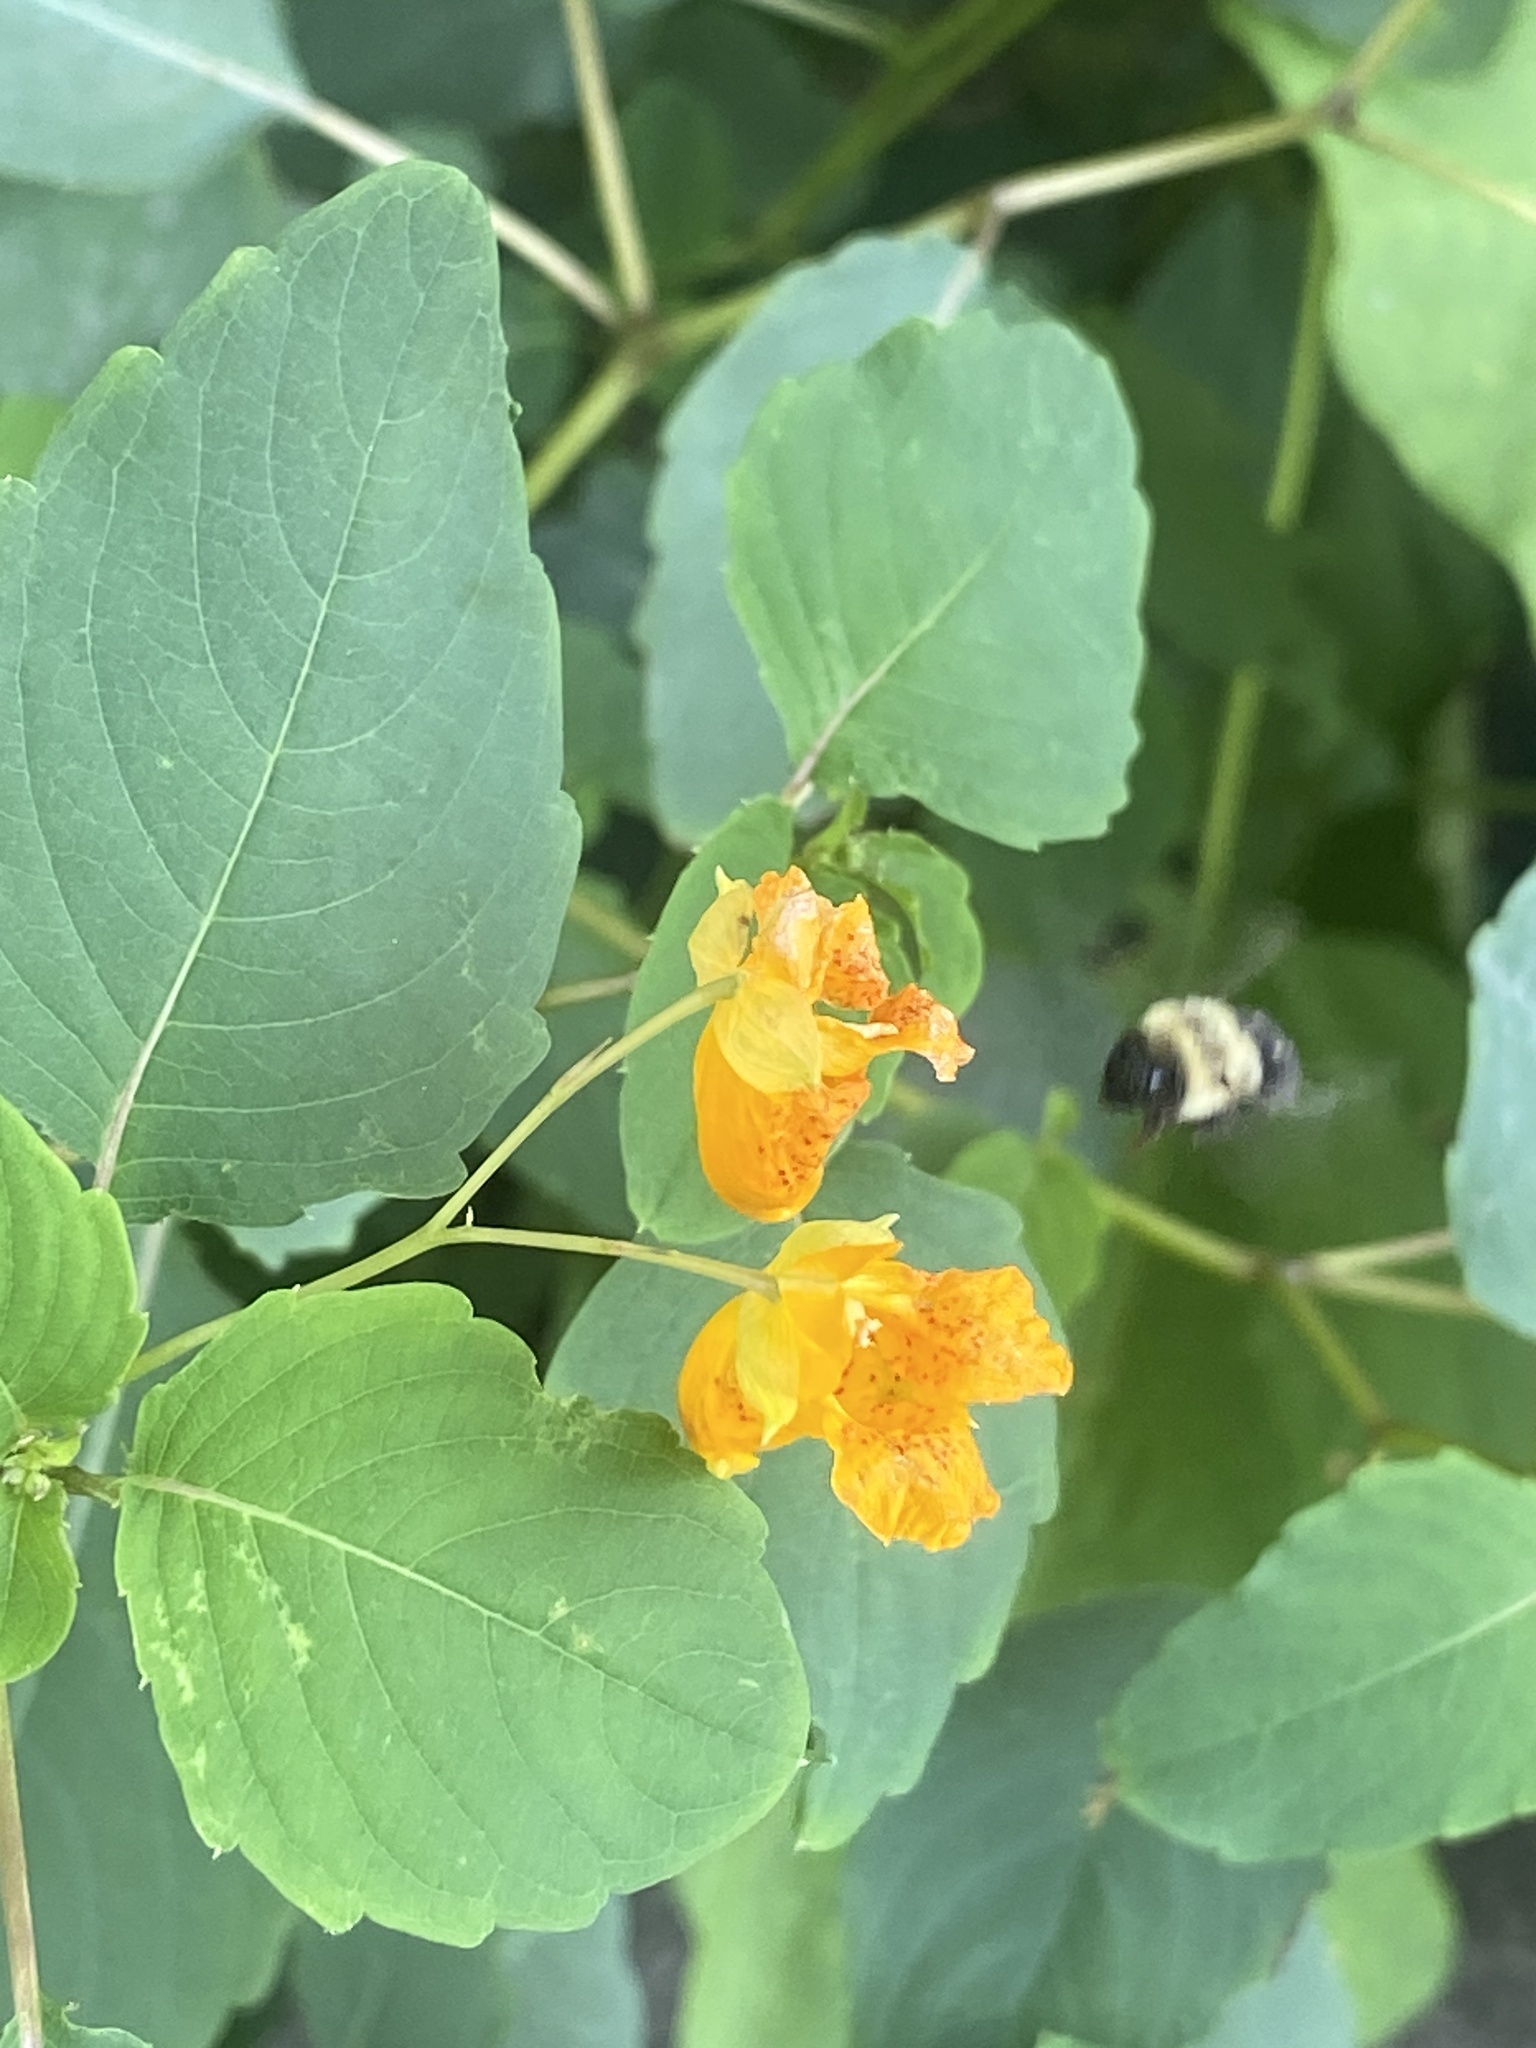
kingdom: Plantae
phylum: Tracheophyta
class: Magnoliopsida
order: Ericales
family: Balsaminaceae
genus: Impatiens
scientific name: Impatiens capensis
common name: Orange balsam
